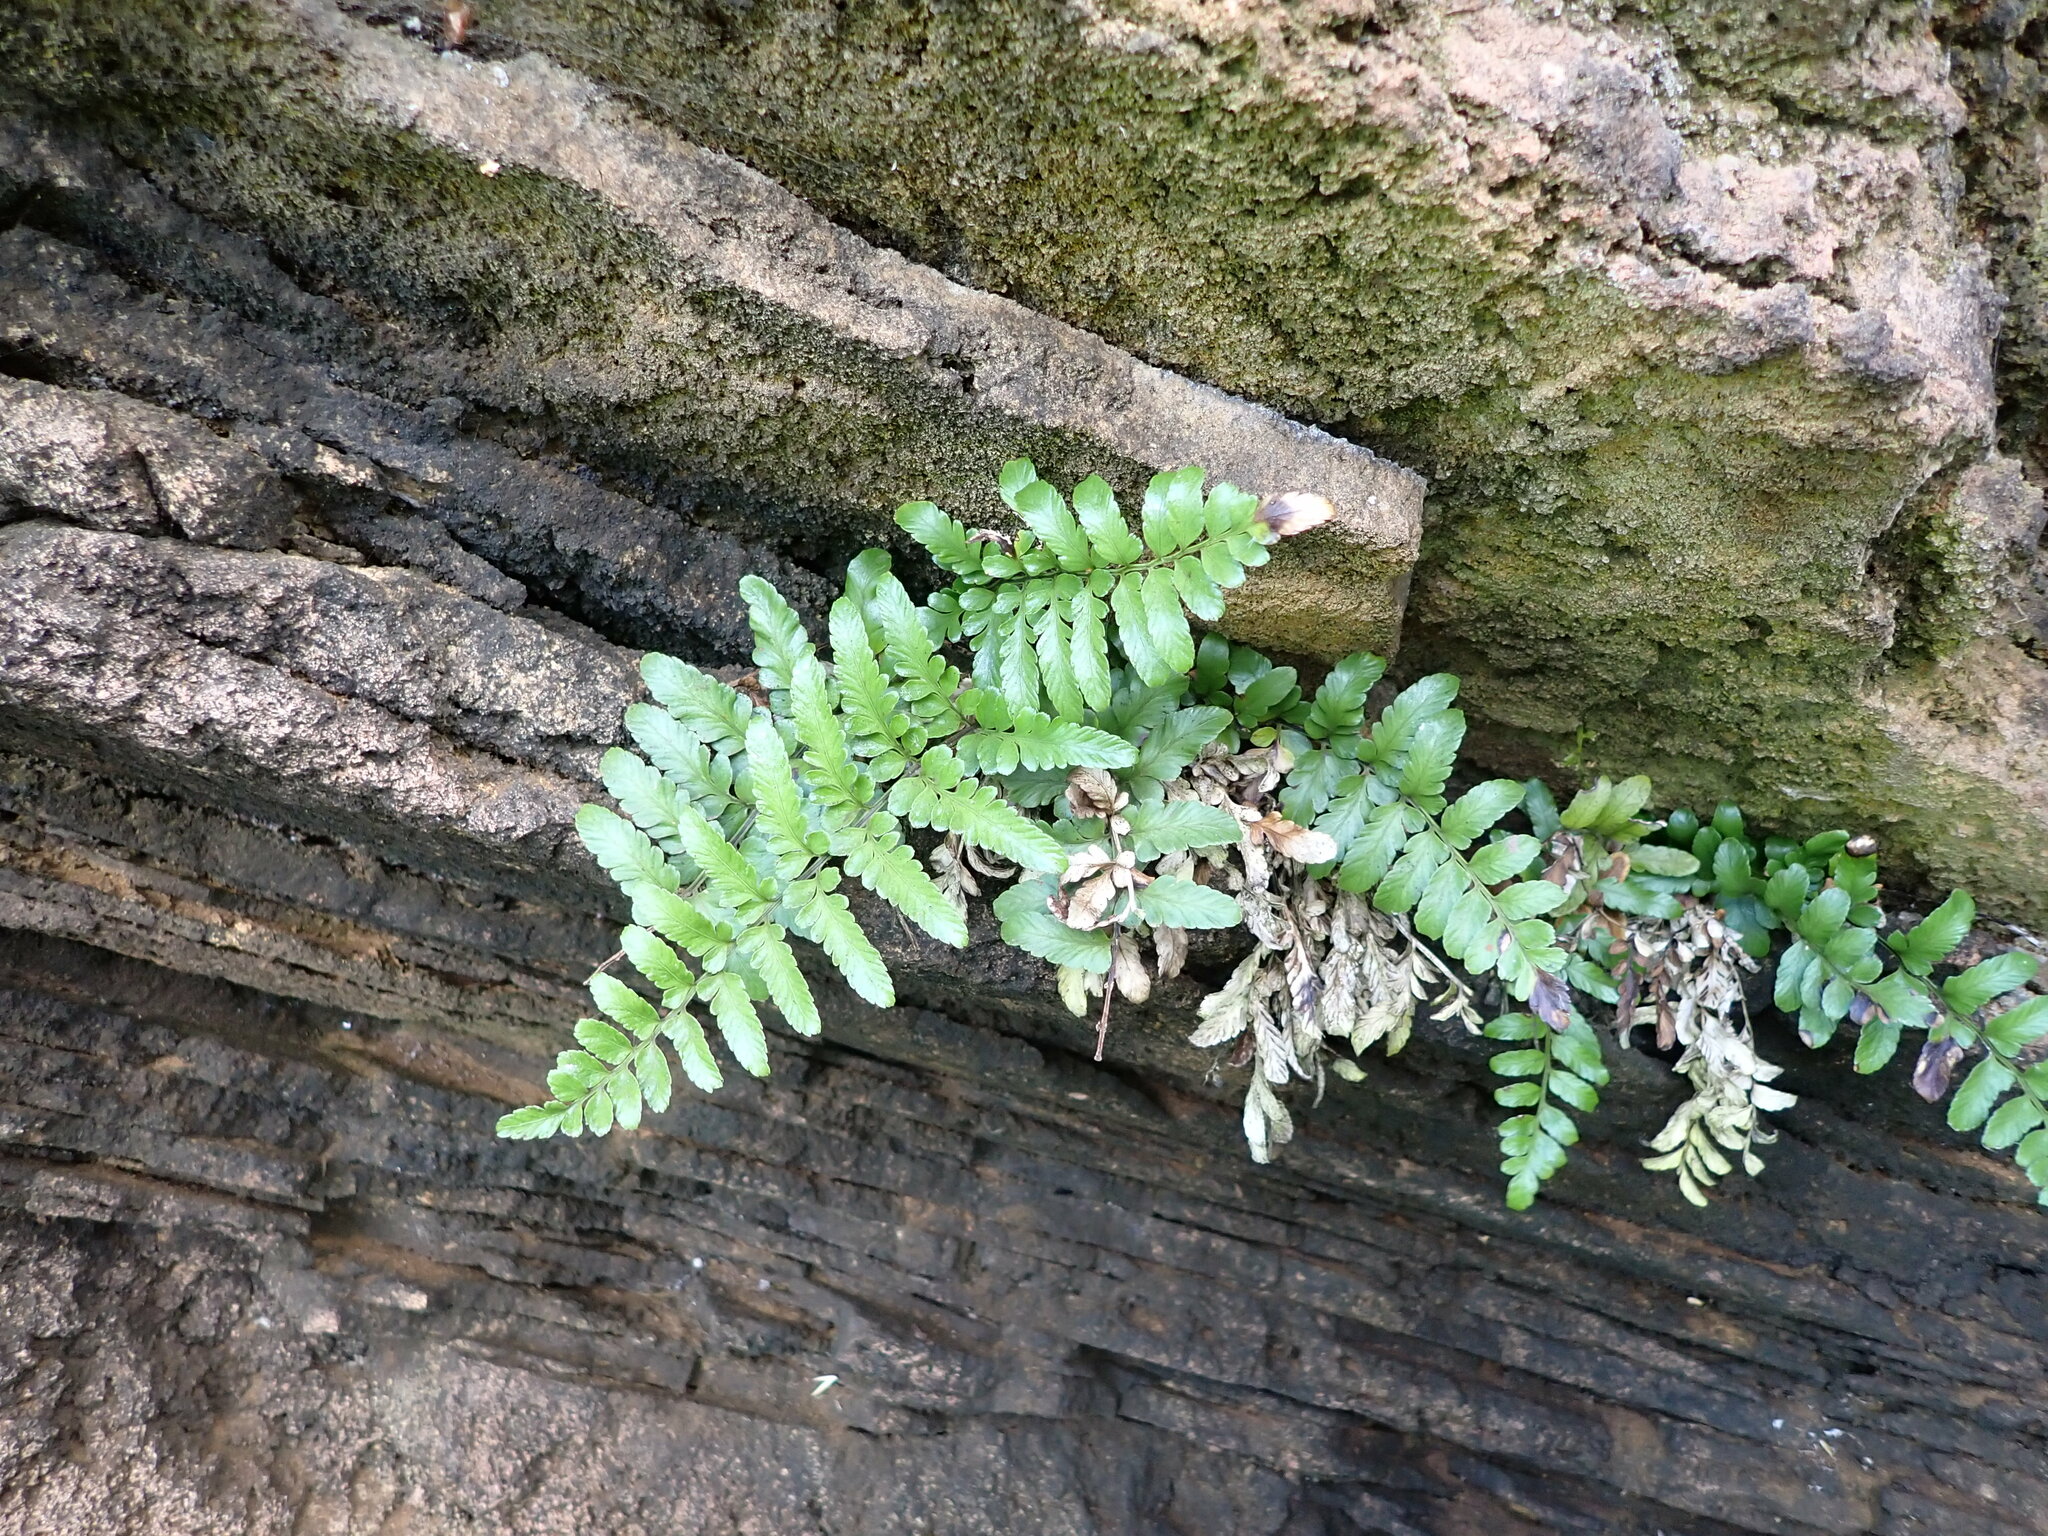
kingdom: Plantae
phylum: Tracheophyta
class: Polypodiopsida
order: Polypodiales
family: Aspleniaceae
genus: Asplenium
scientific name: Asplenium difforme
